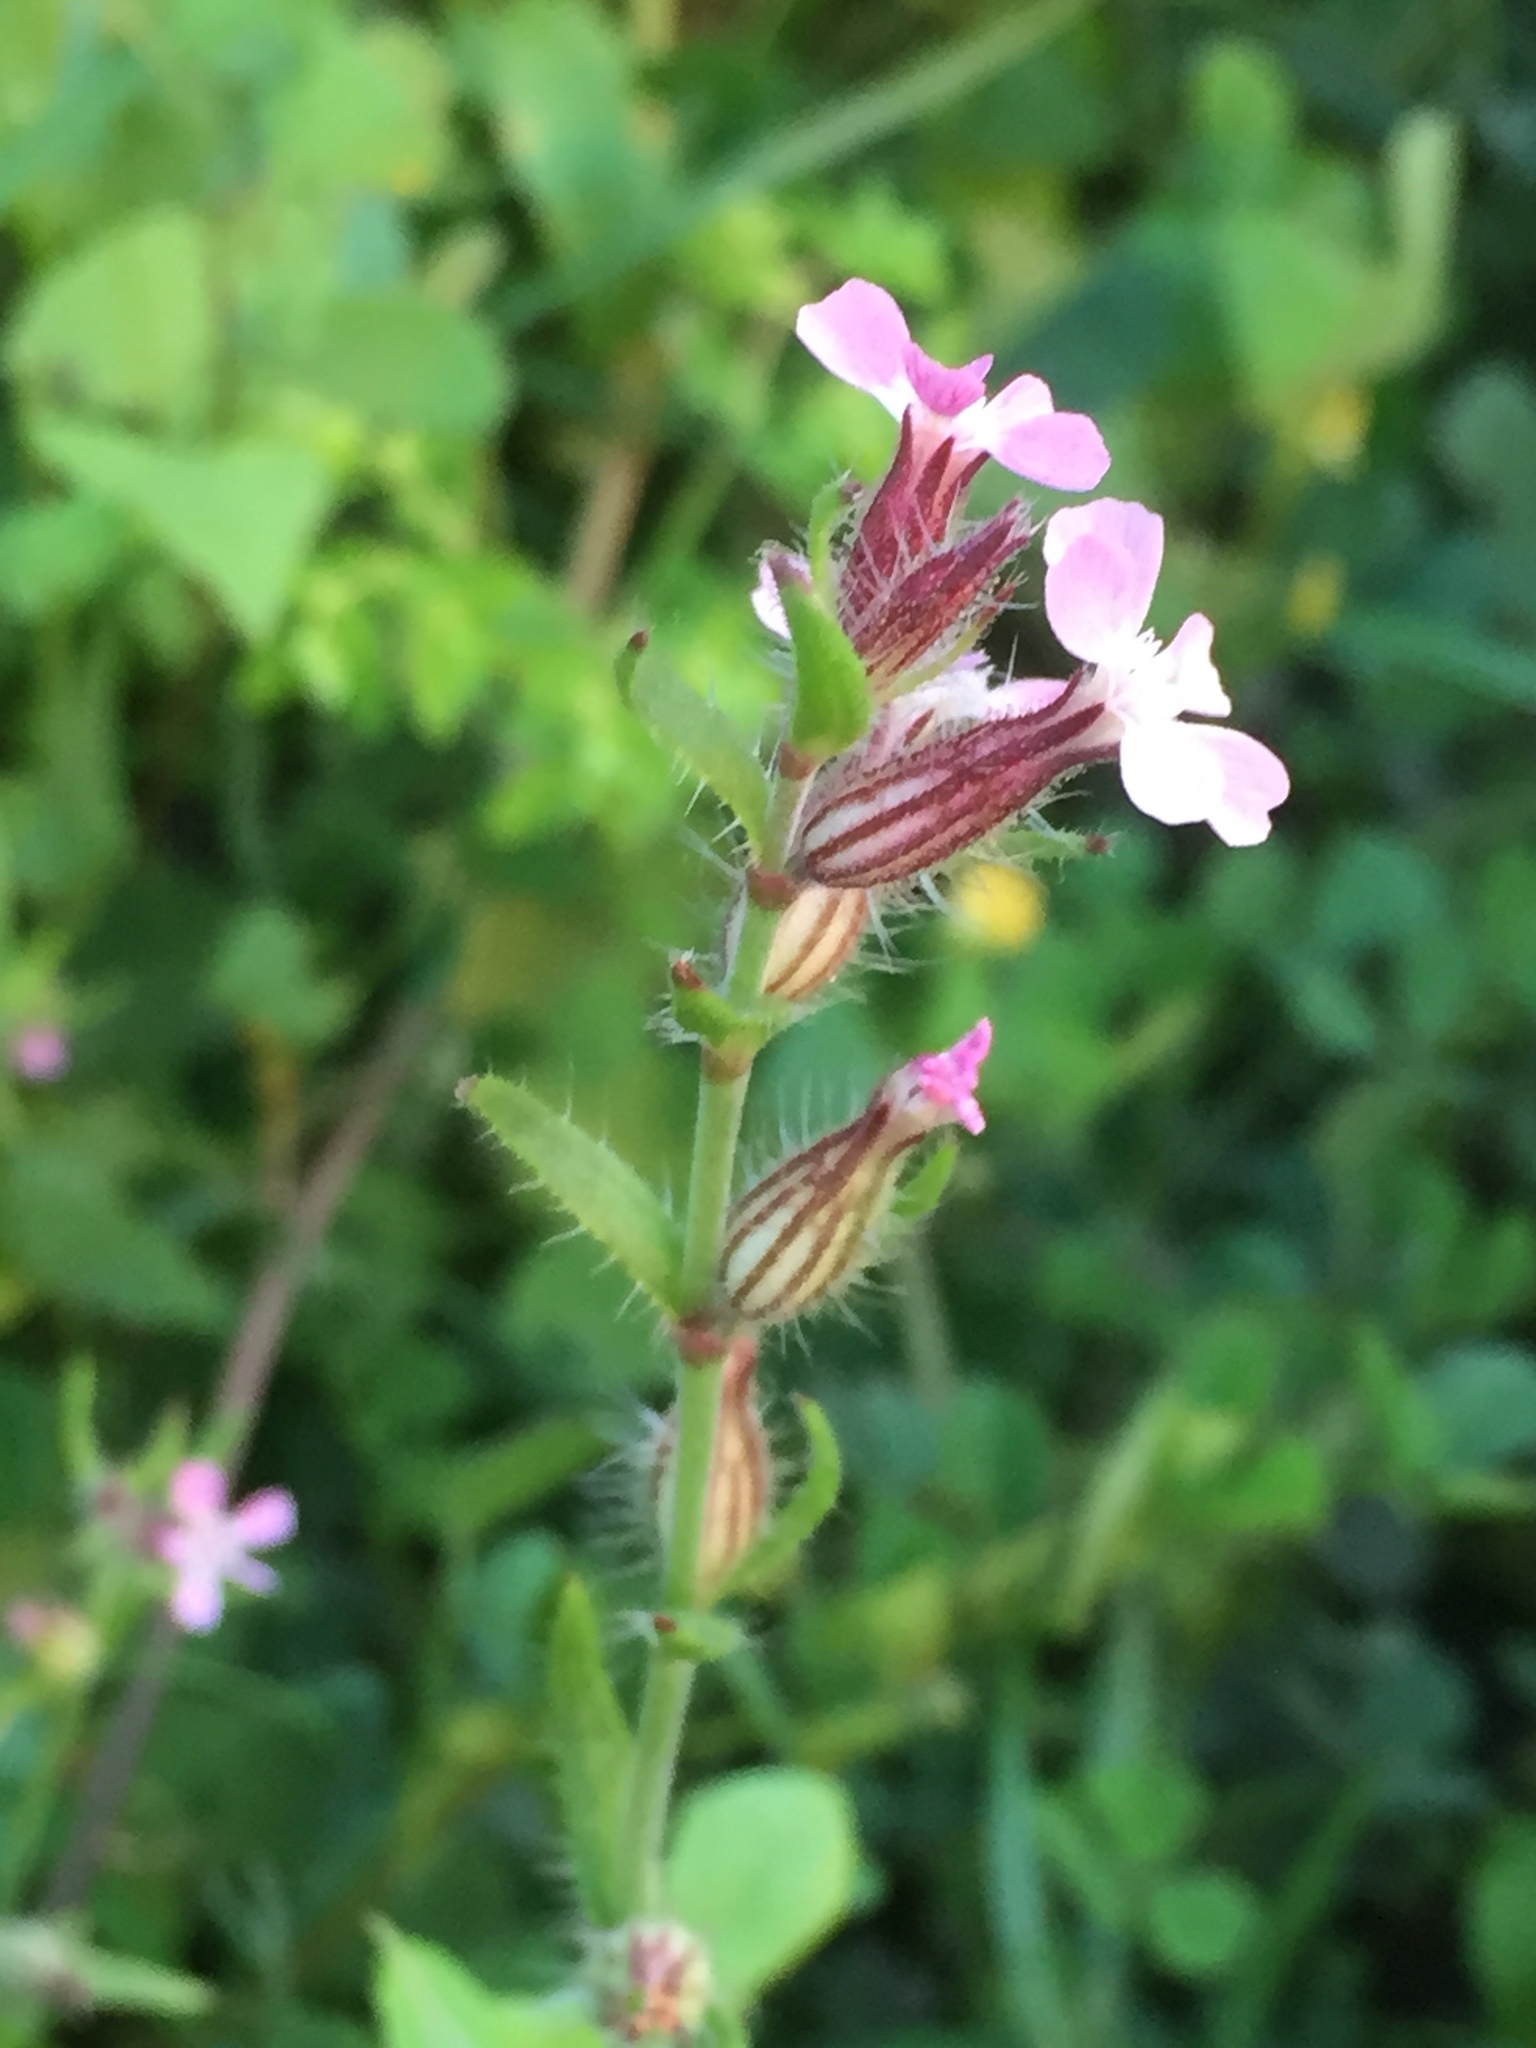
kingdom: Plantae
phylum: Tracheophyta
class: Magnoliopsida
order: Caryophyllales
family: Caryophyllaceae
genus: Silene
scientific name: Silene gallica
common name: Small-flowered catchfly
